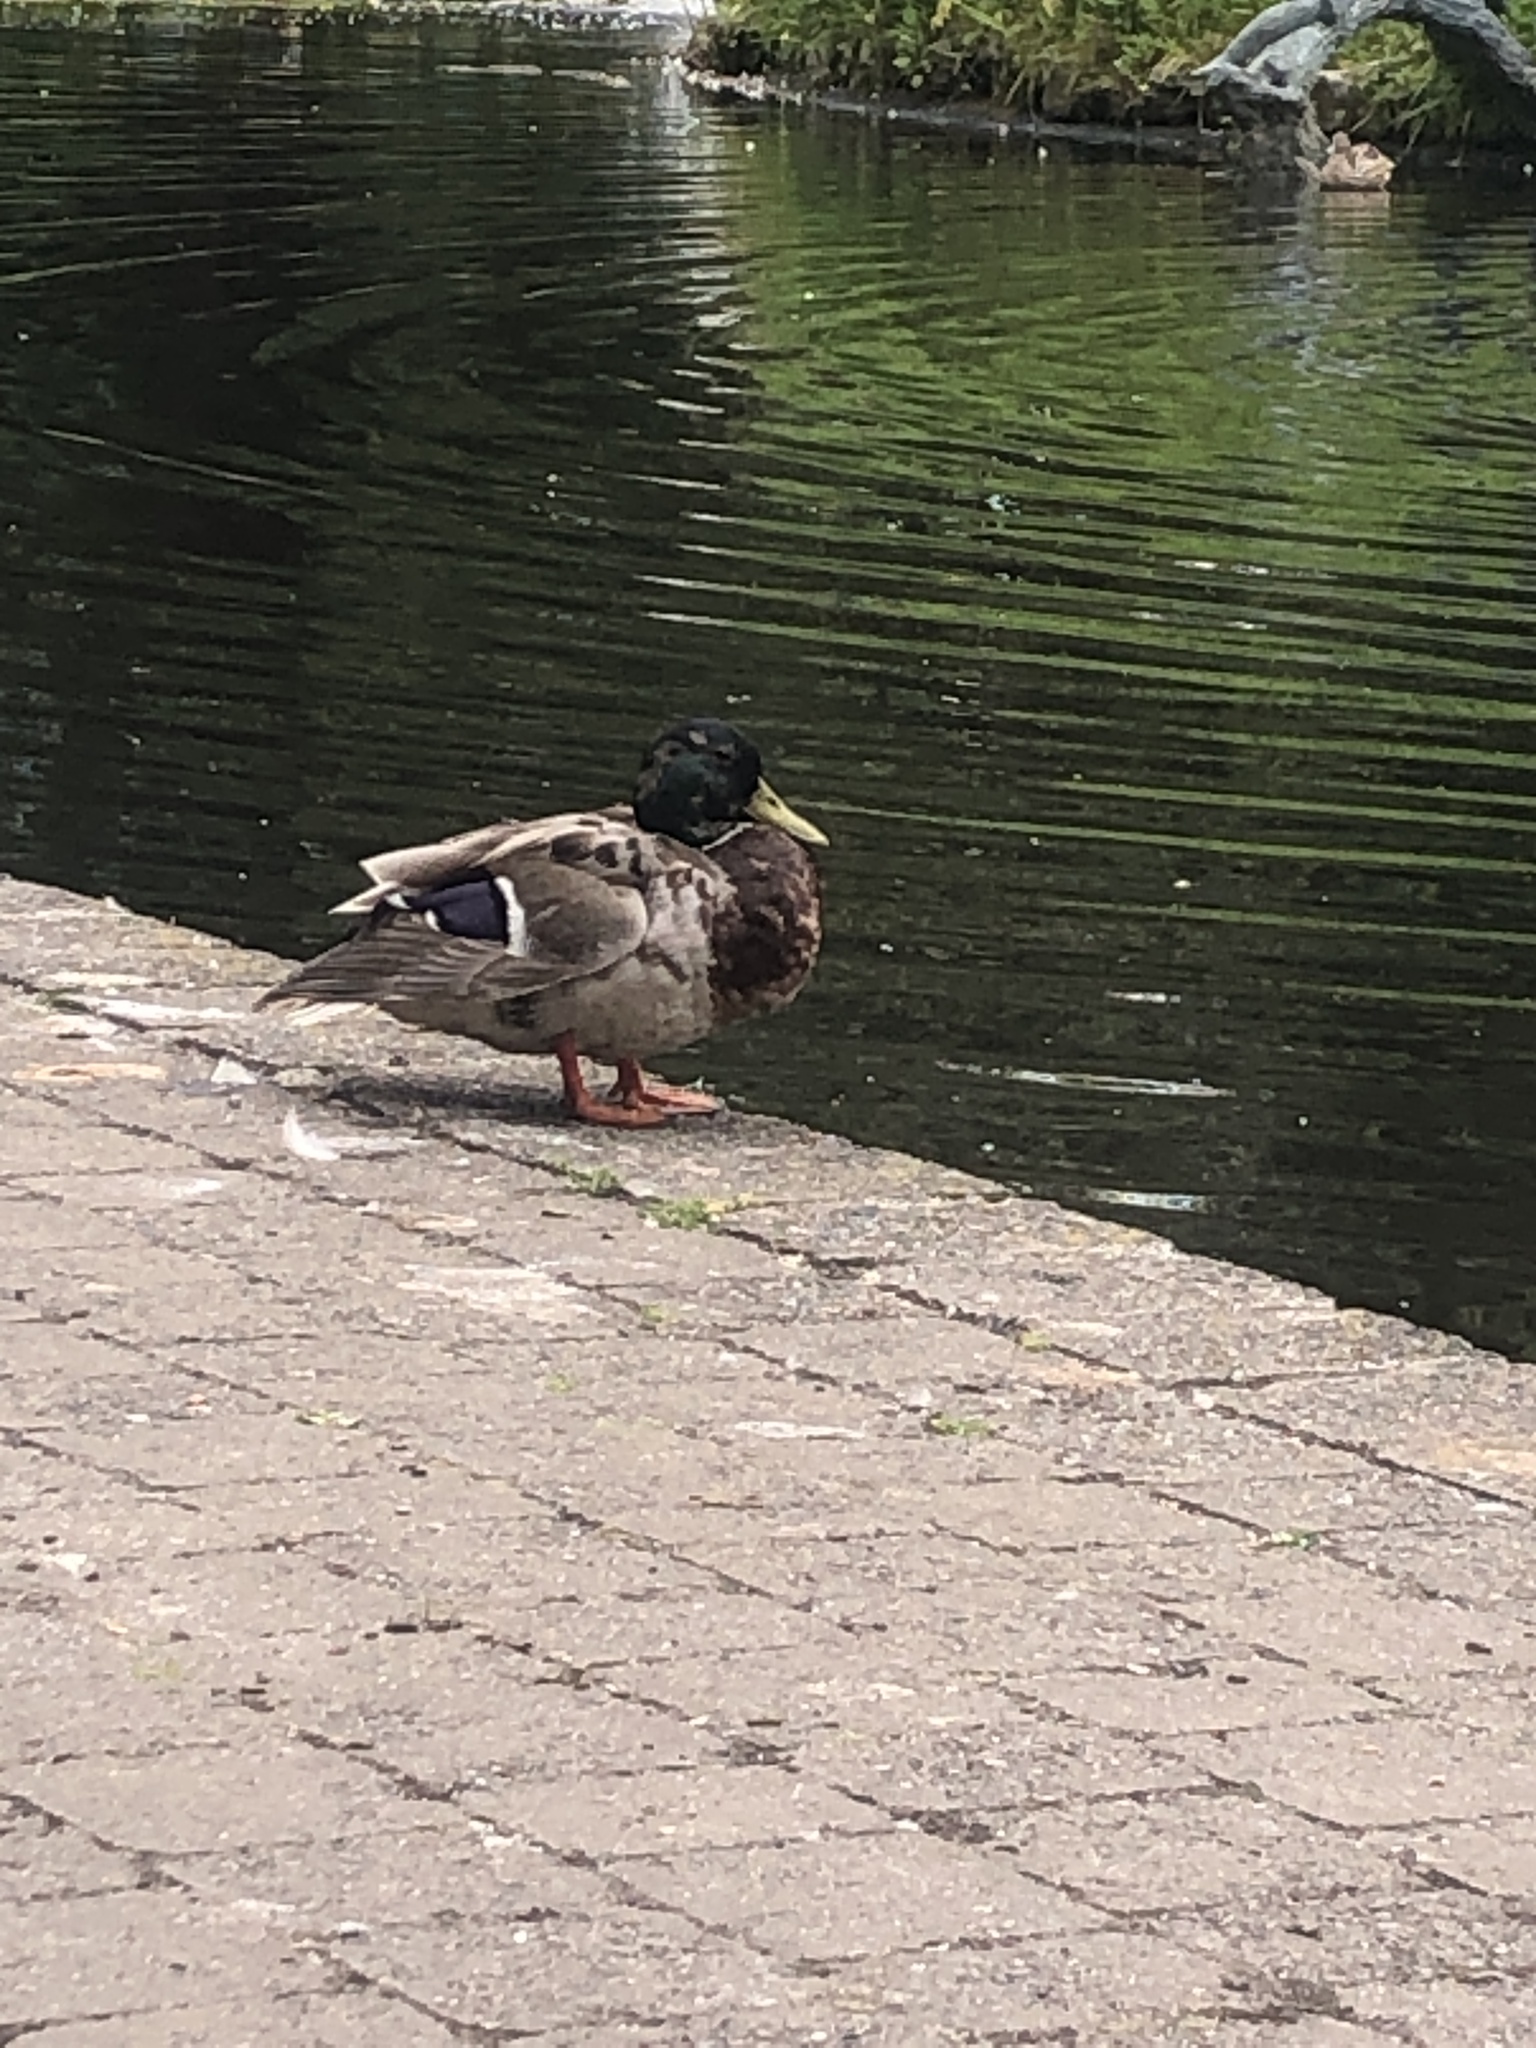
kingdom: Animalia
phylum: Chordata
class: Aves
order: Anseriformes
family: Anatidae
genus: Anas
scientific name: Anas platyrhynchos
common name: Mallard
